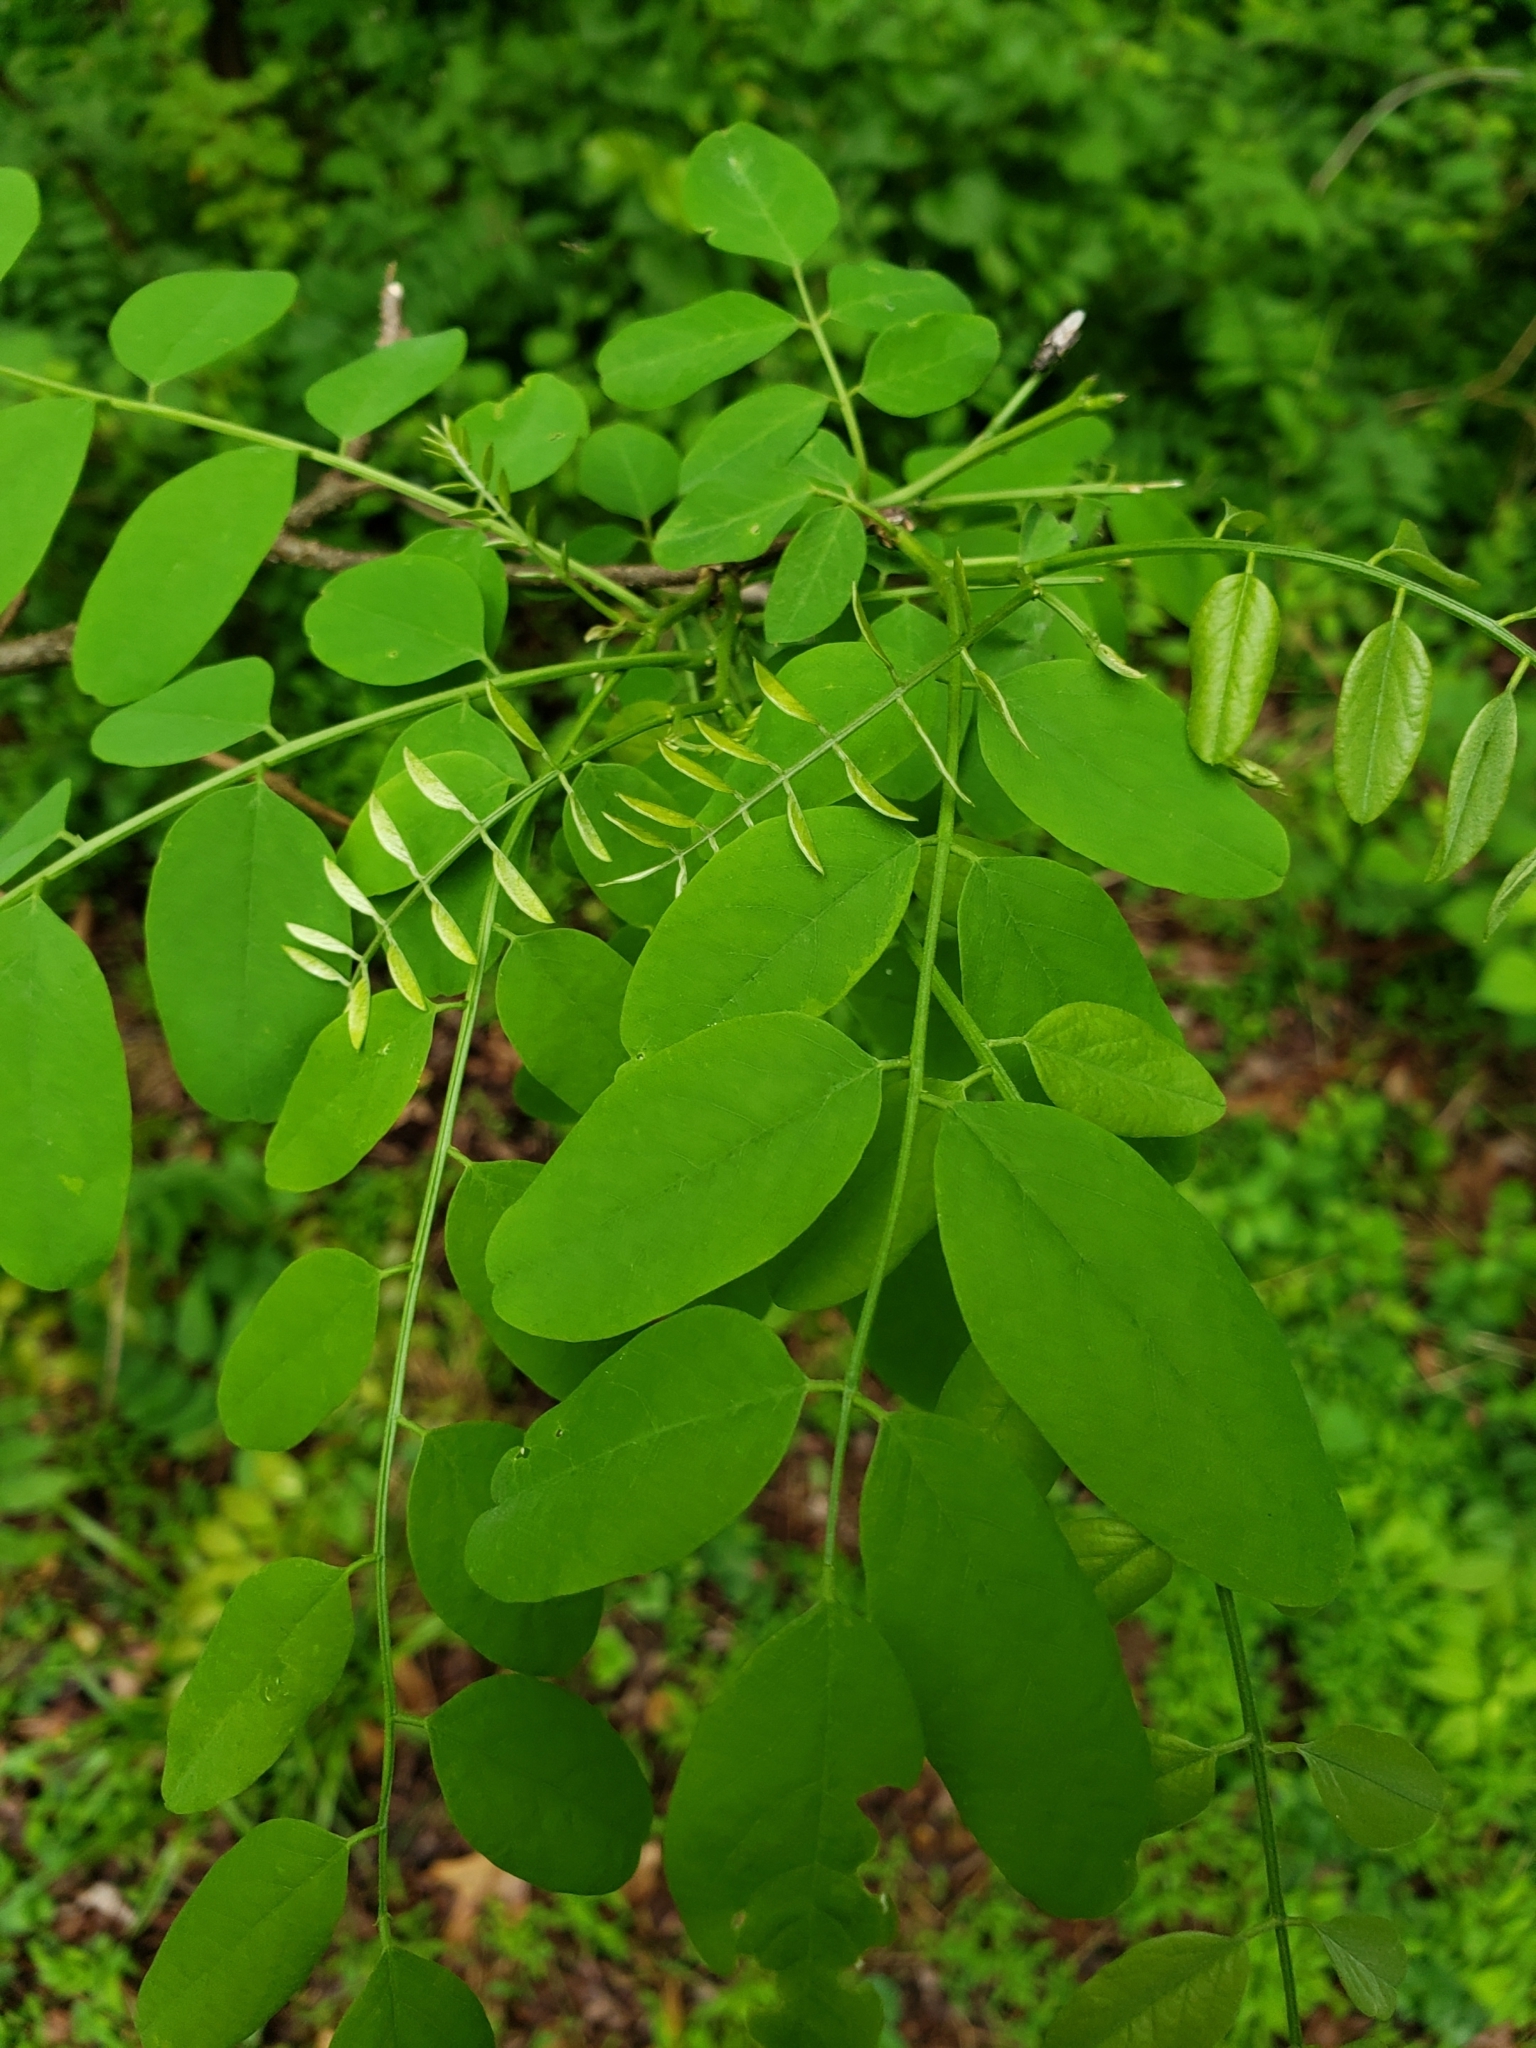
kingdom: Plantae
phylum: Tracheophyta
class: Magnoliopsida
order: Fabales
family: Fabaceae
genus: Robinia
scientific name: Robinia pseudoacacia
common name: Black locust
